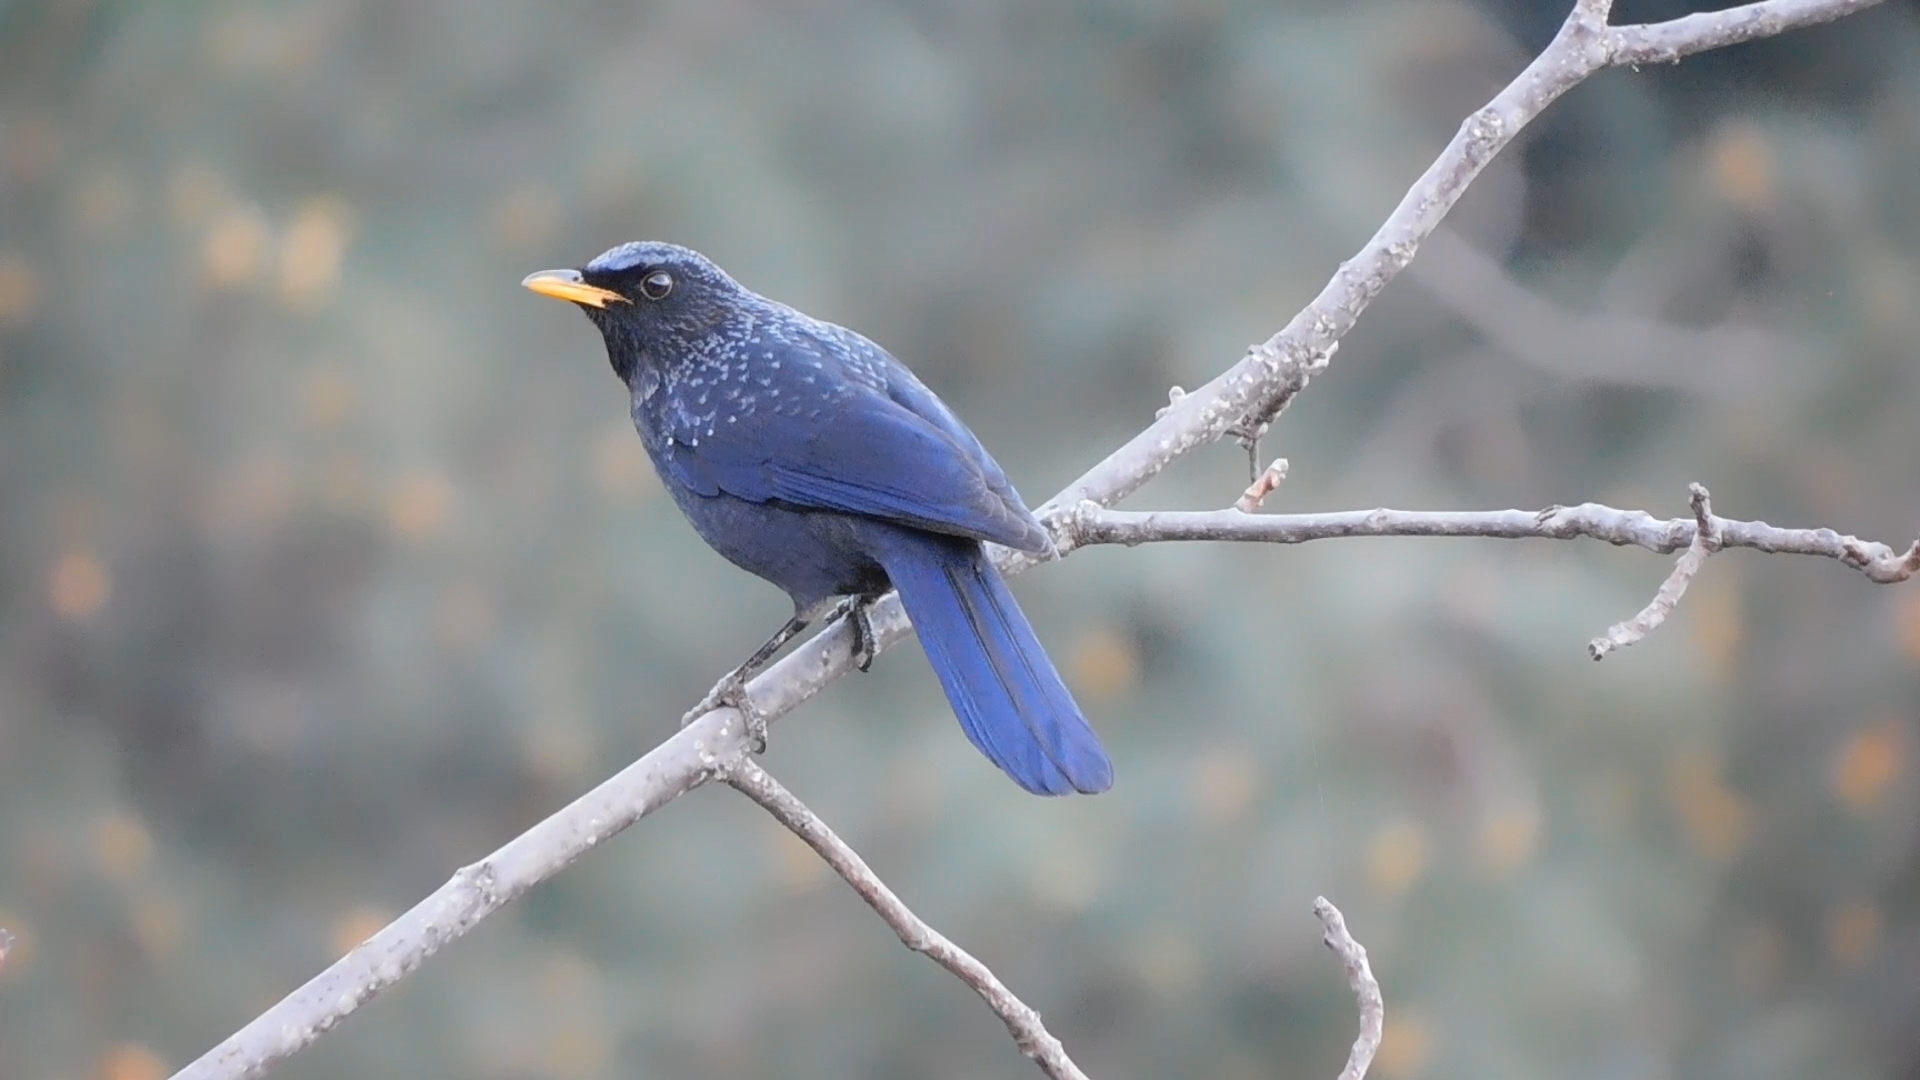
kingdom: Animalia
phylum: Chordata
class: Aves
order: Passeriformes
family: Muscicapidae
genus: Myophonus
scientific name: Myophonus caeruleus
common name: Blue whistling-thrush
